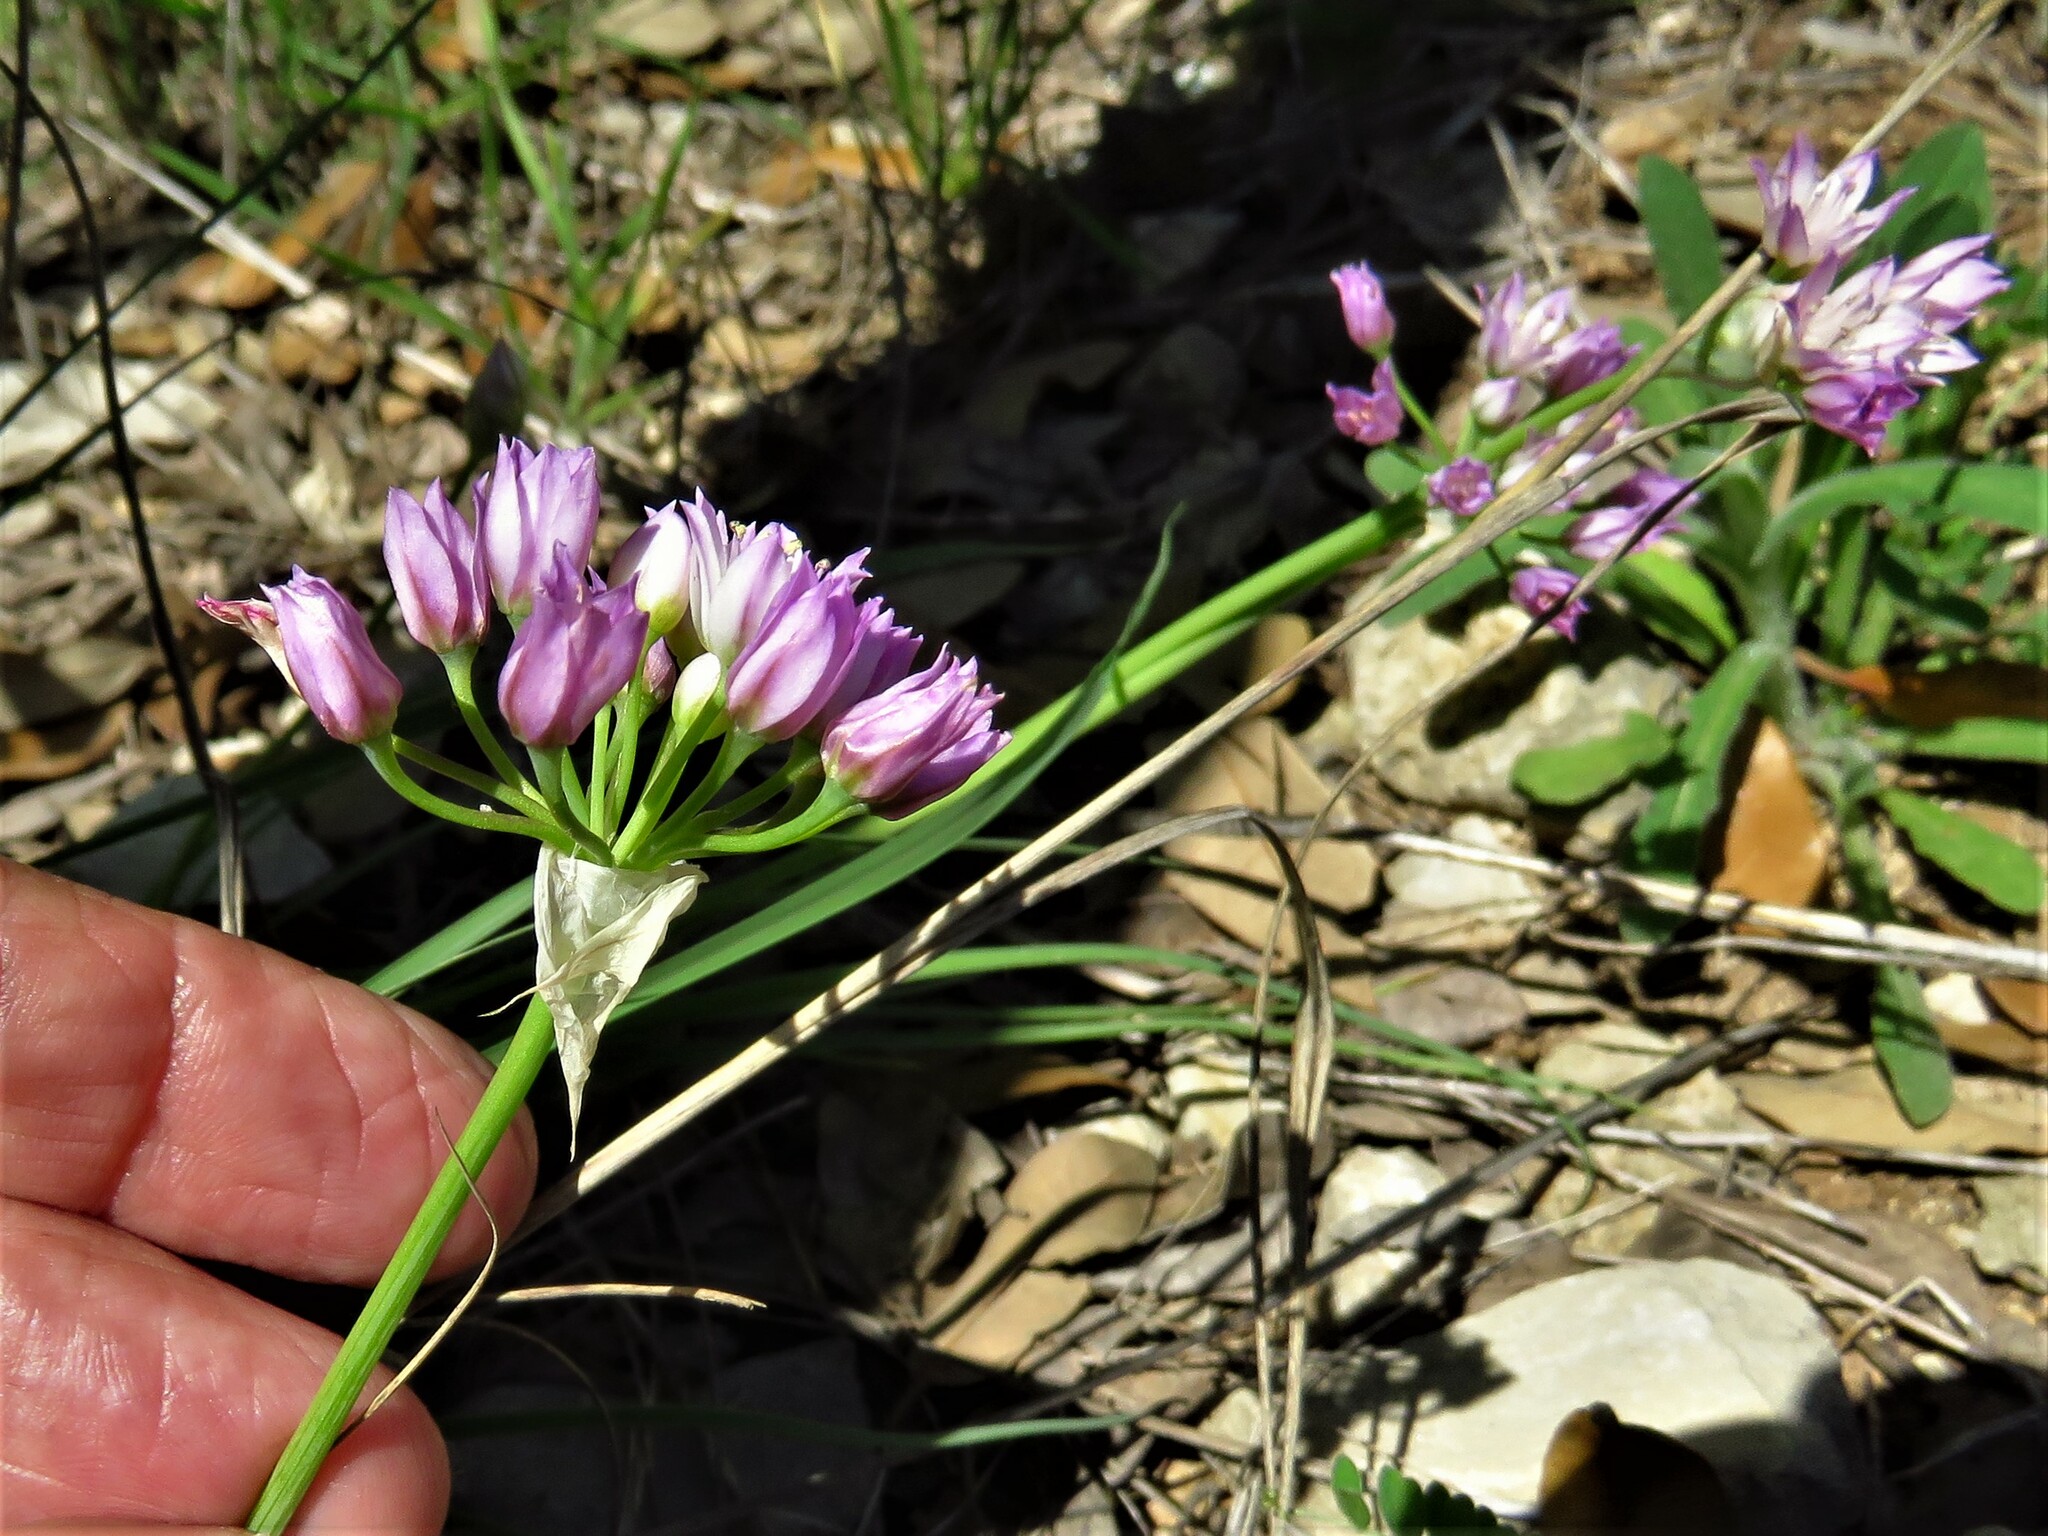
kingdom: Plantae
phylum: Tracheophyta
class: Liliopsida
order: Asparagales
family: Amaryllidaceae
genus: Allium
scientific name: Allium drummondii
